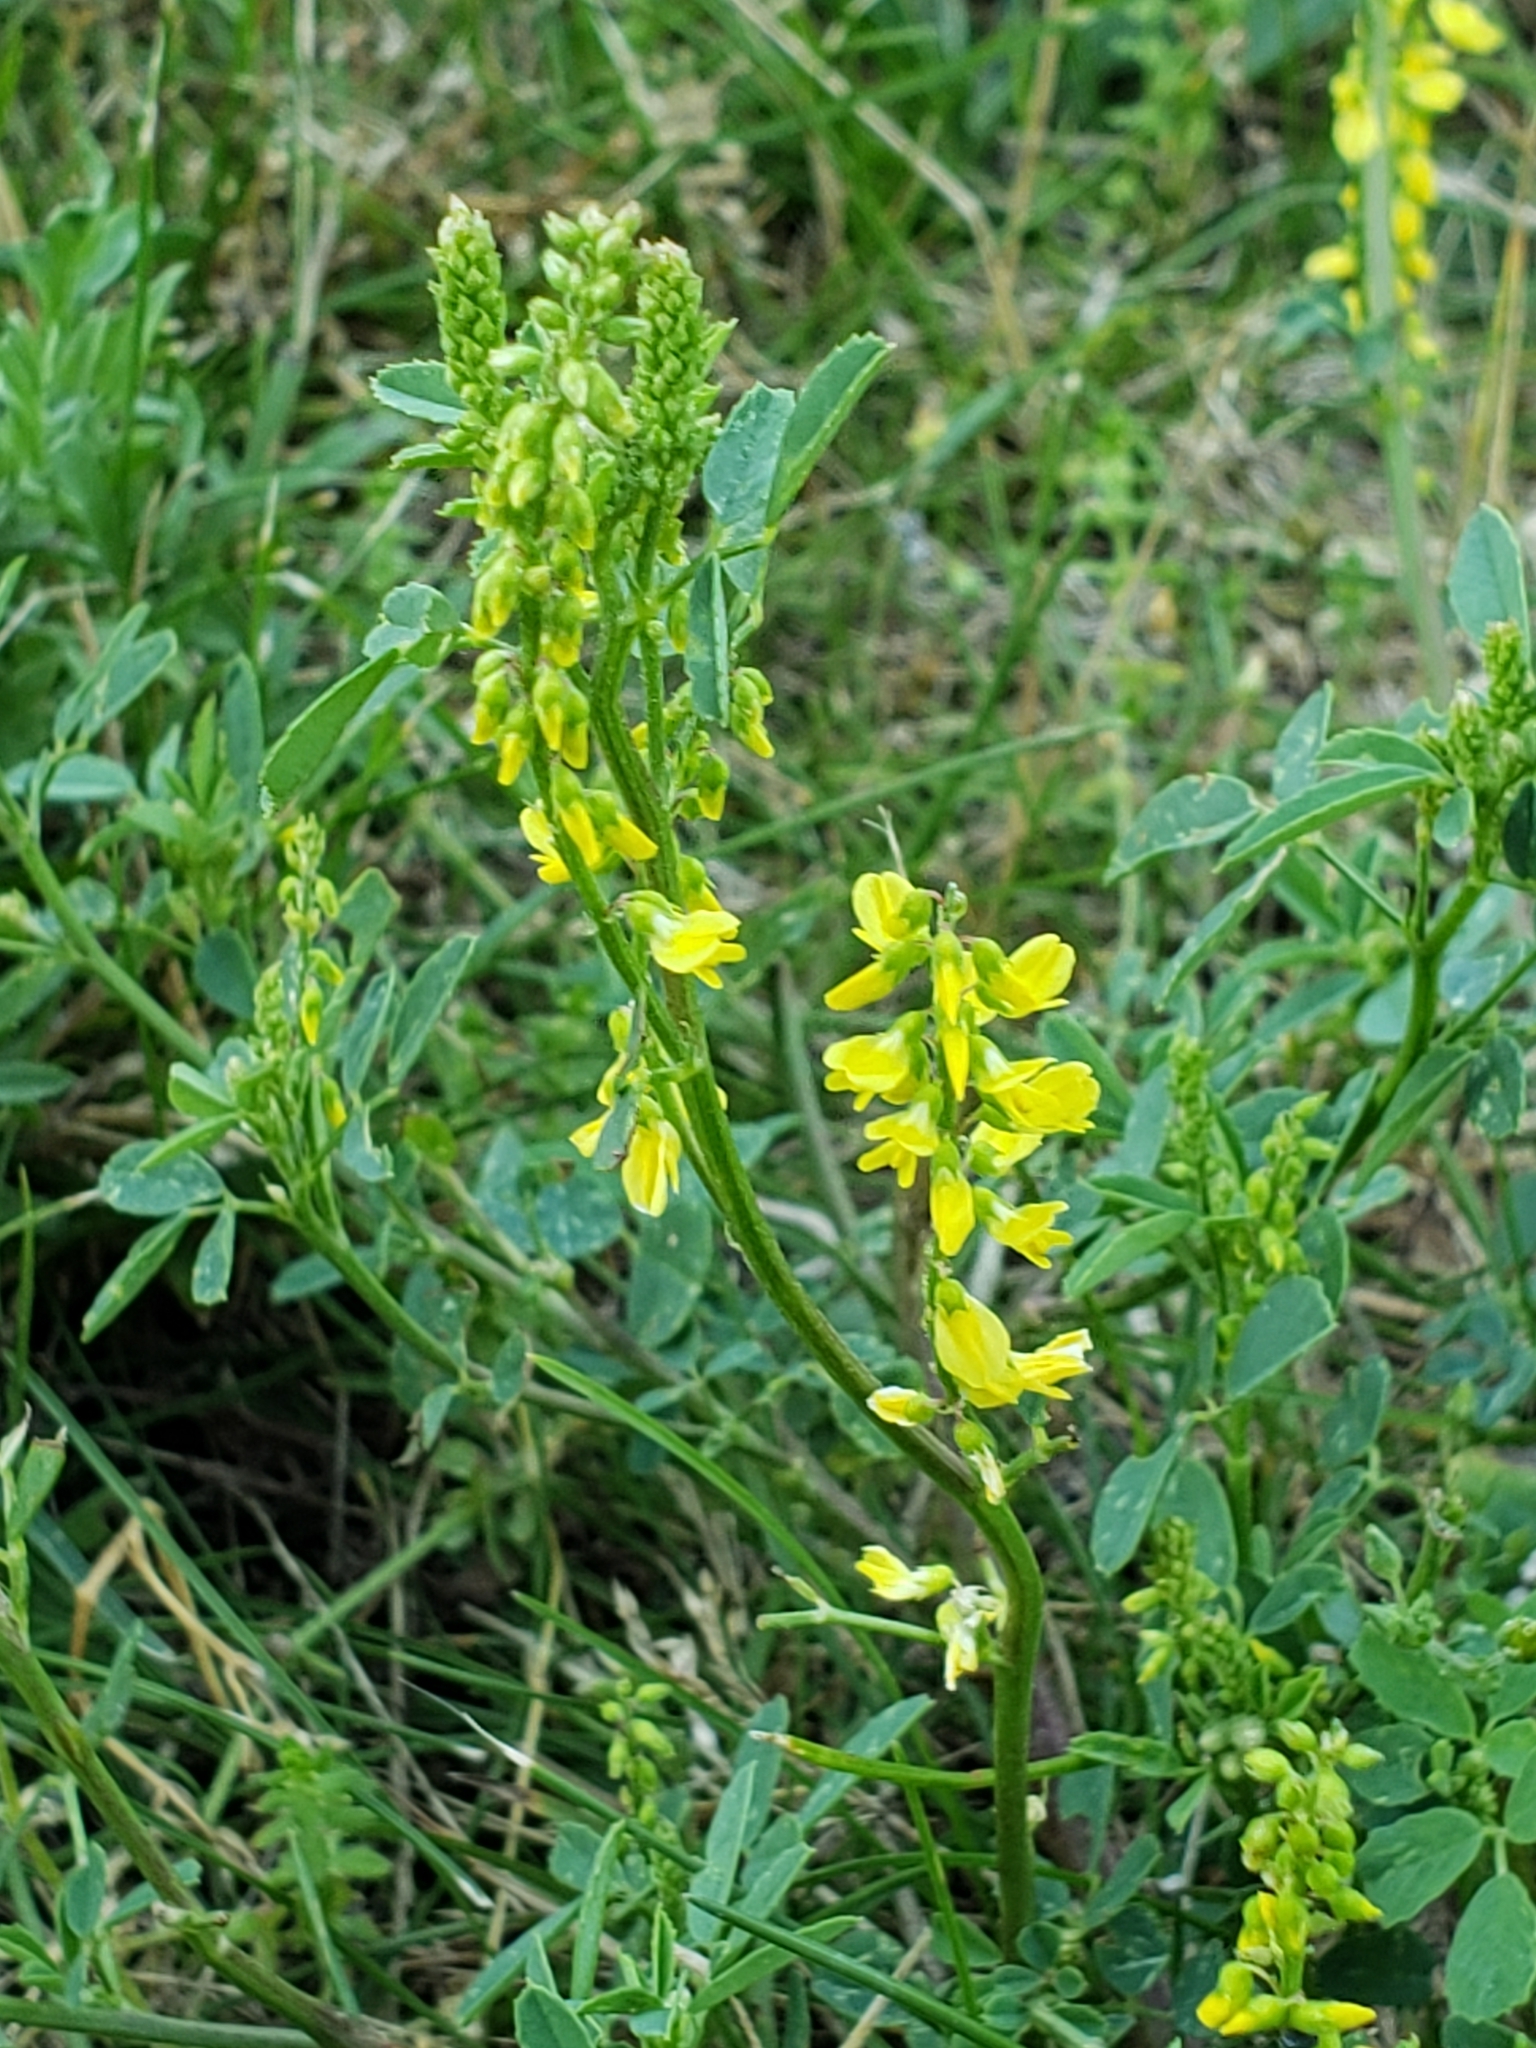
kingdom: Plantae
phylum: Tracheophyta
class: Magnoliopsida
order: Fabales
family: Fabaceae
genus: Melilotus
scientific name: Melilotus officinalis
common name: Sweetclover
